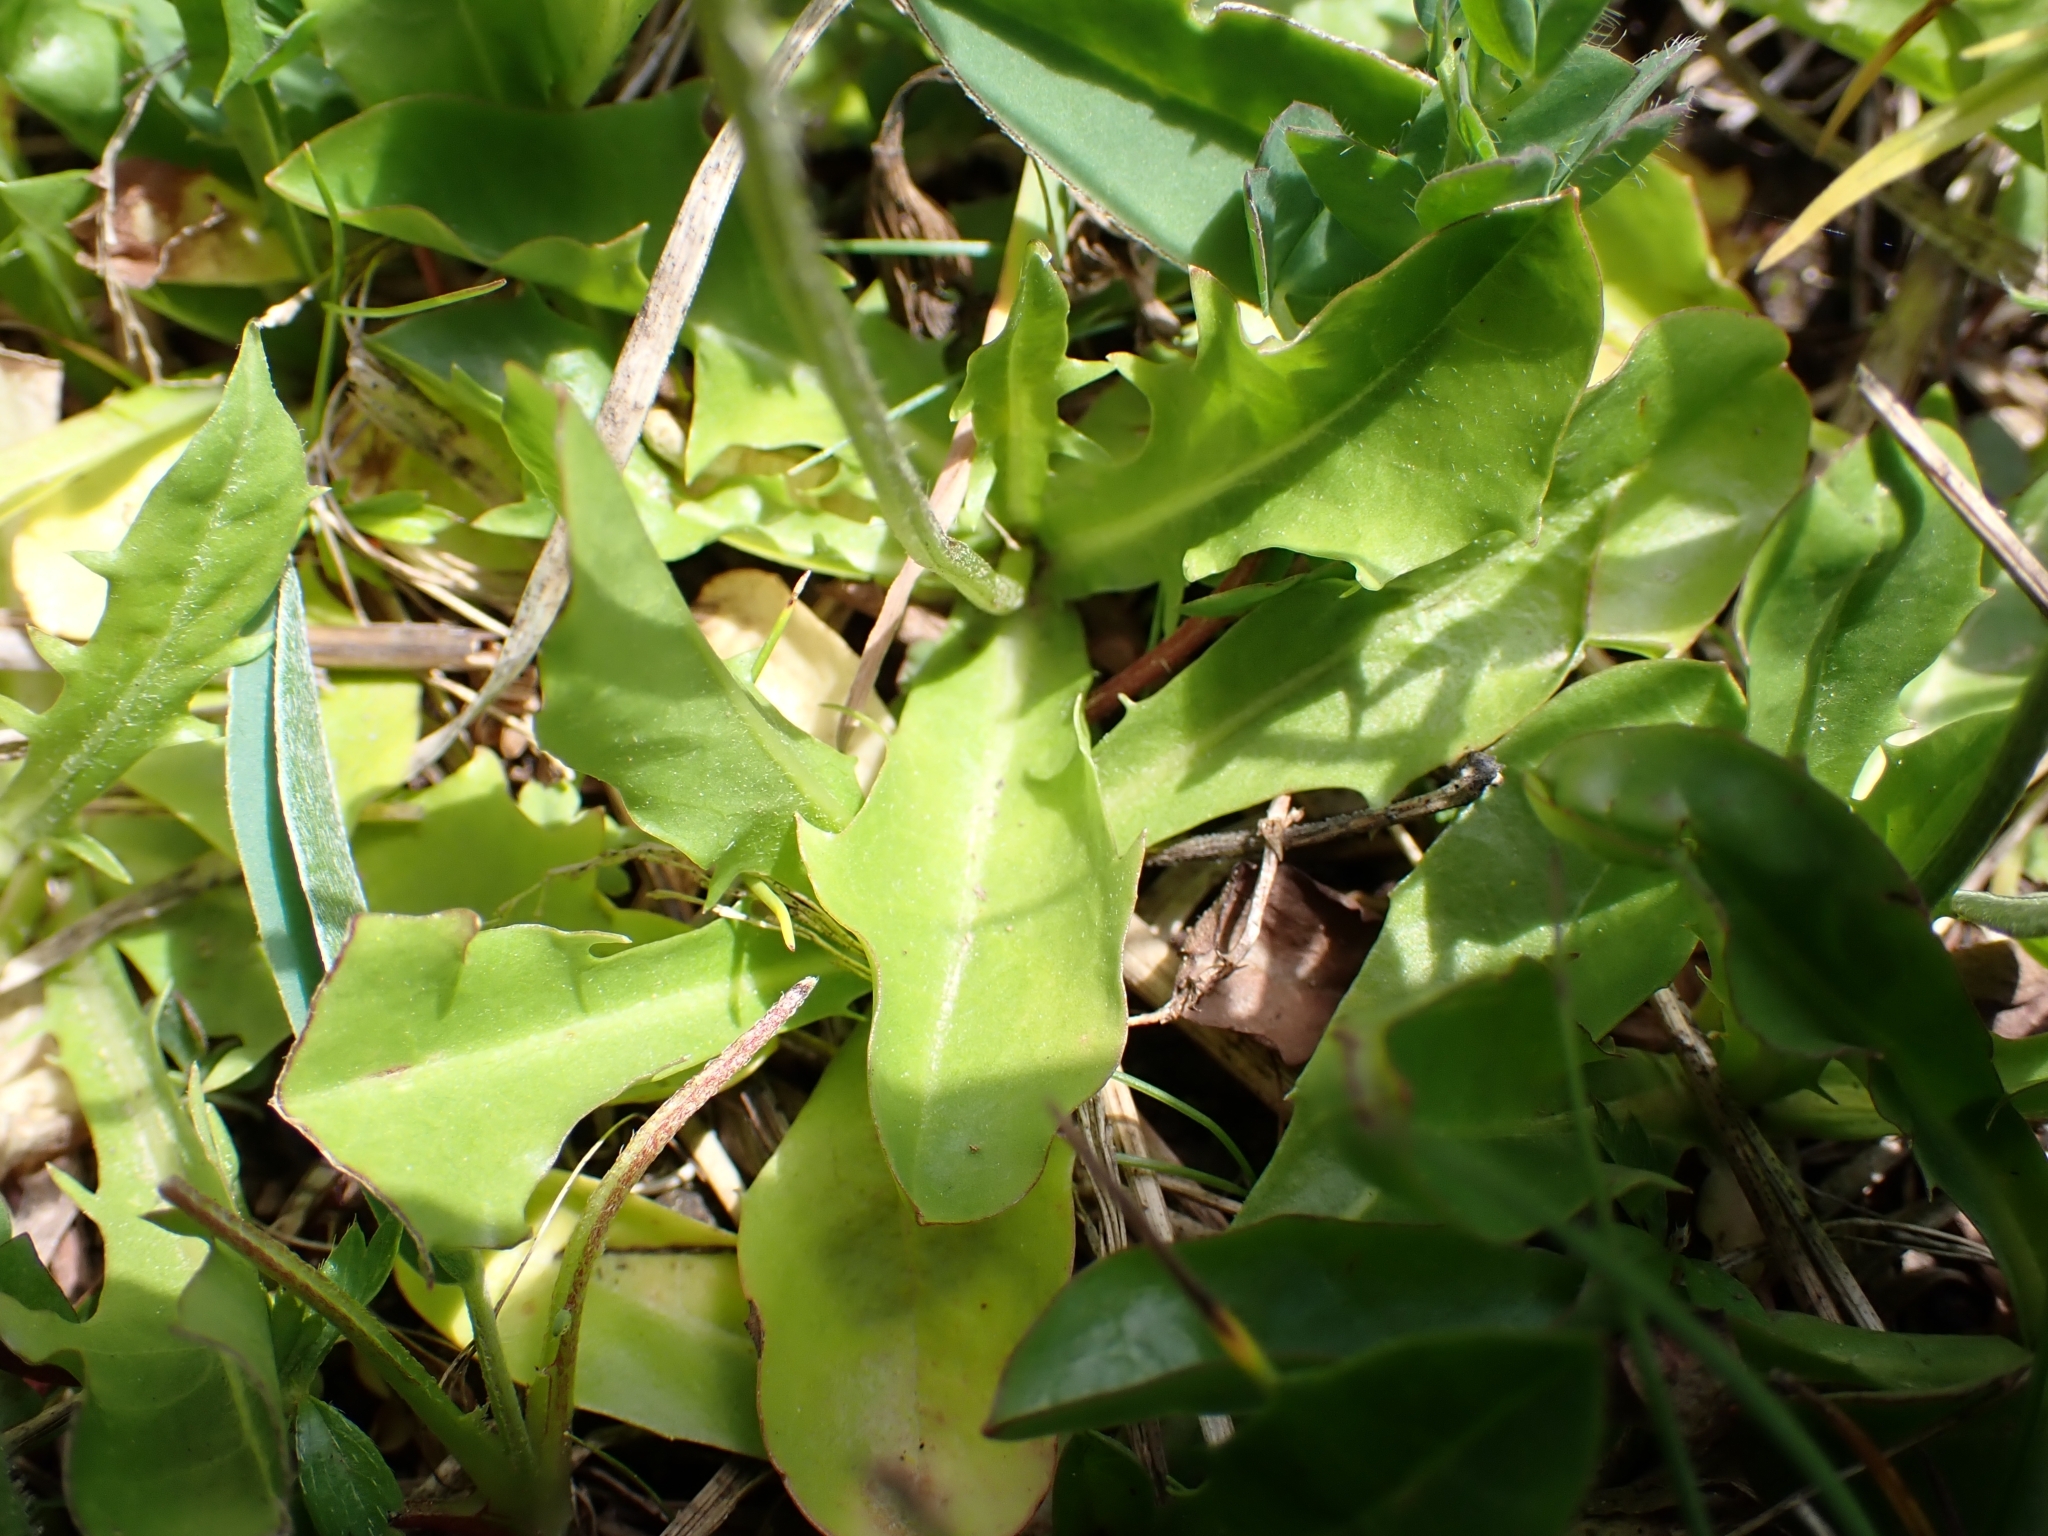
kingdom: Plantae
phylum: Tracheophyta
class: Magnoliopsida
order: Asterales
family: Asteraceae
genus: Crepis
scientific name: Crepis aurea
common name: Golden hawk's-beard
